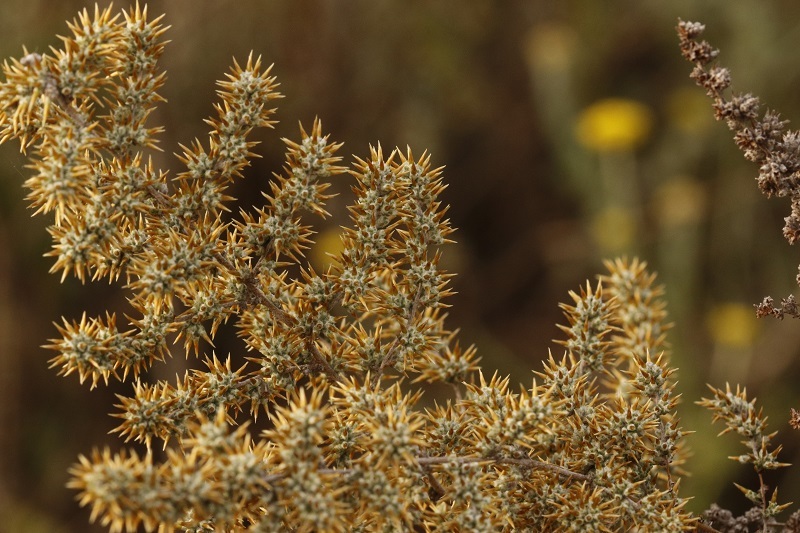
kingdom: Plantae
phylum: Tracheophyta
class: Magnoliopsida
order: Asterales
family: Asteraceae
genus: Seriphium
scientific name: Seriphium plumosum
